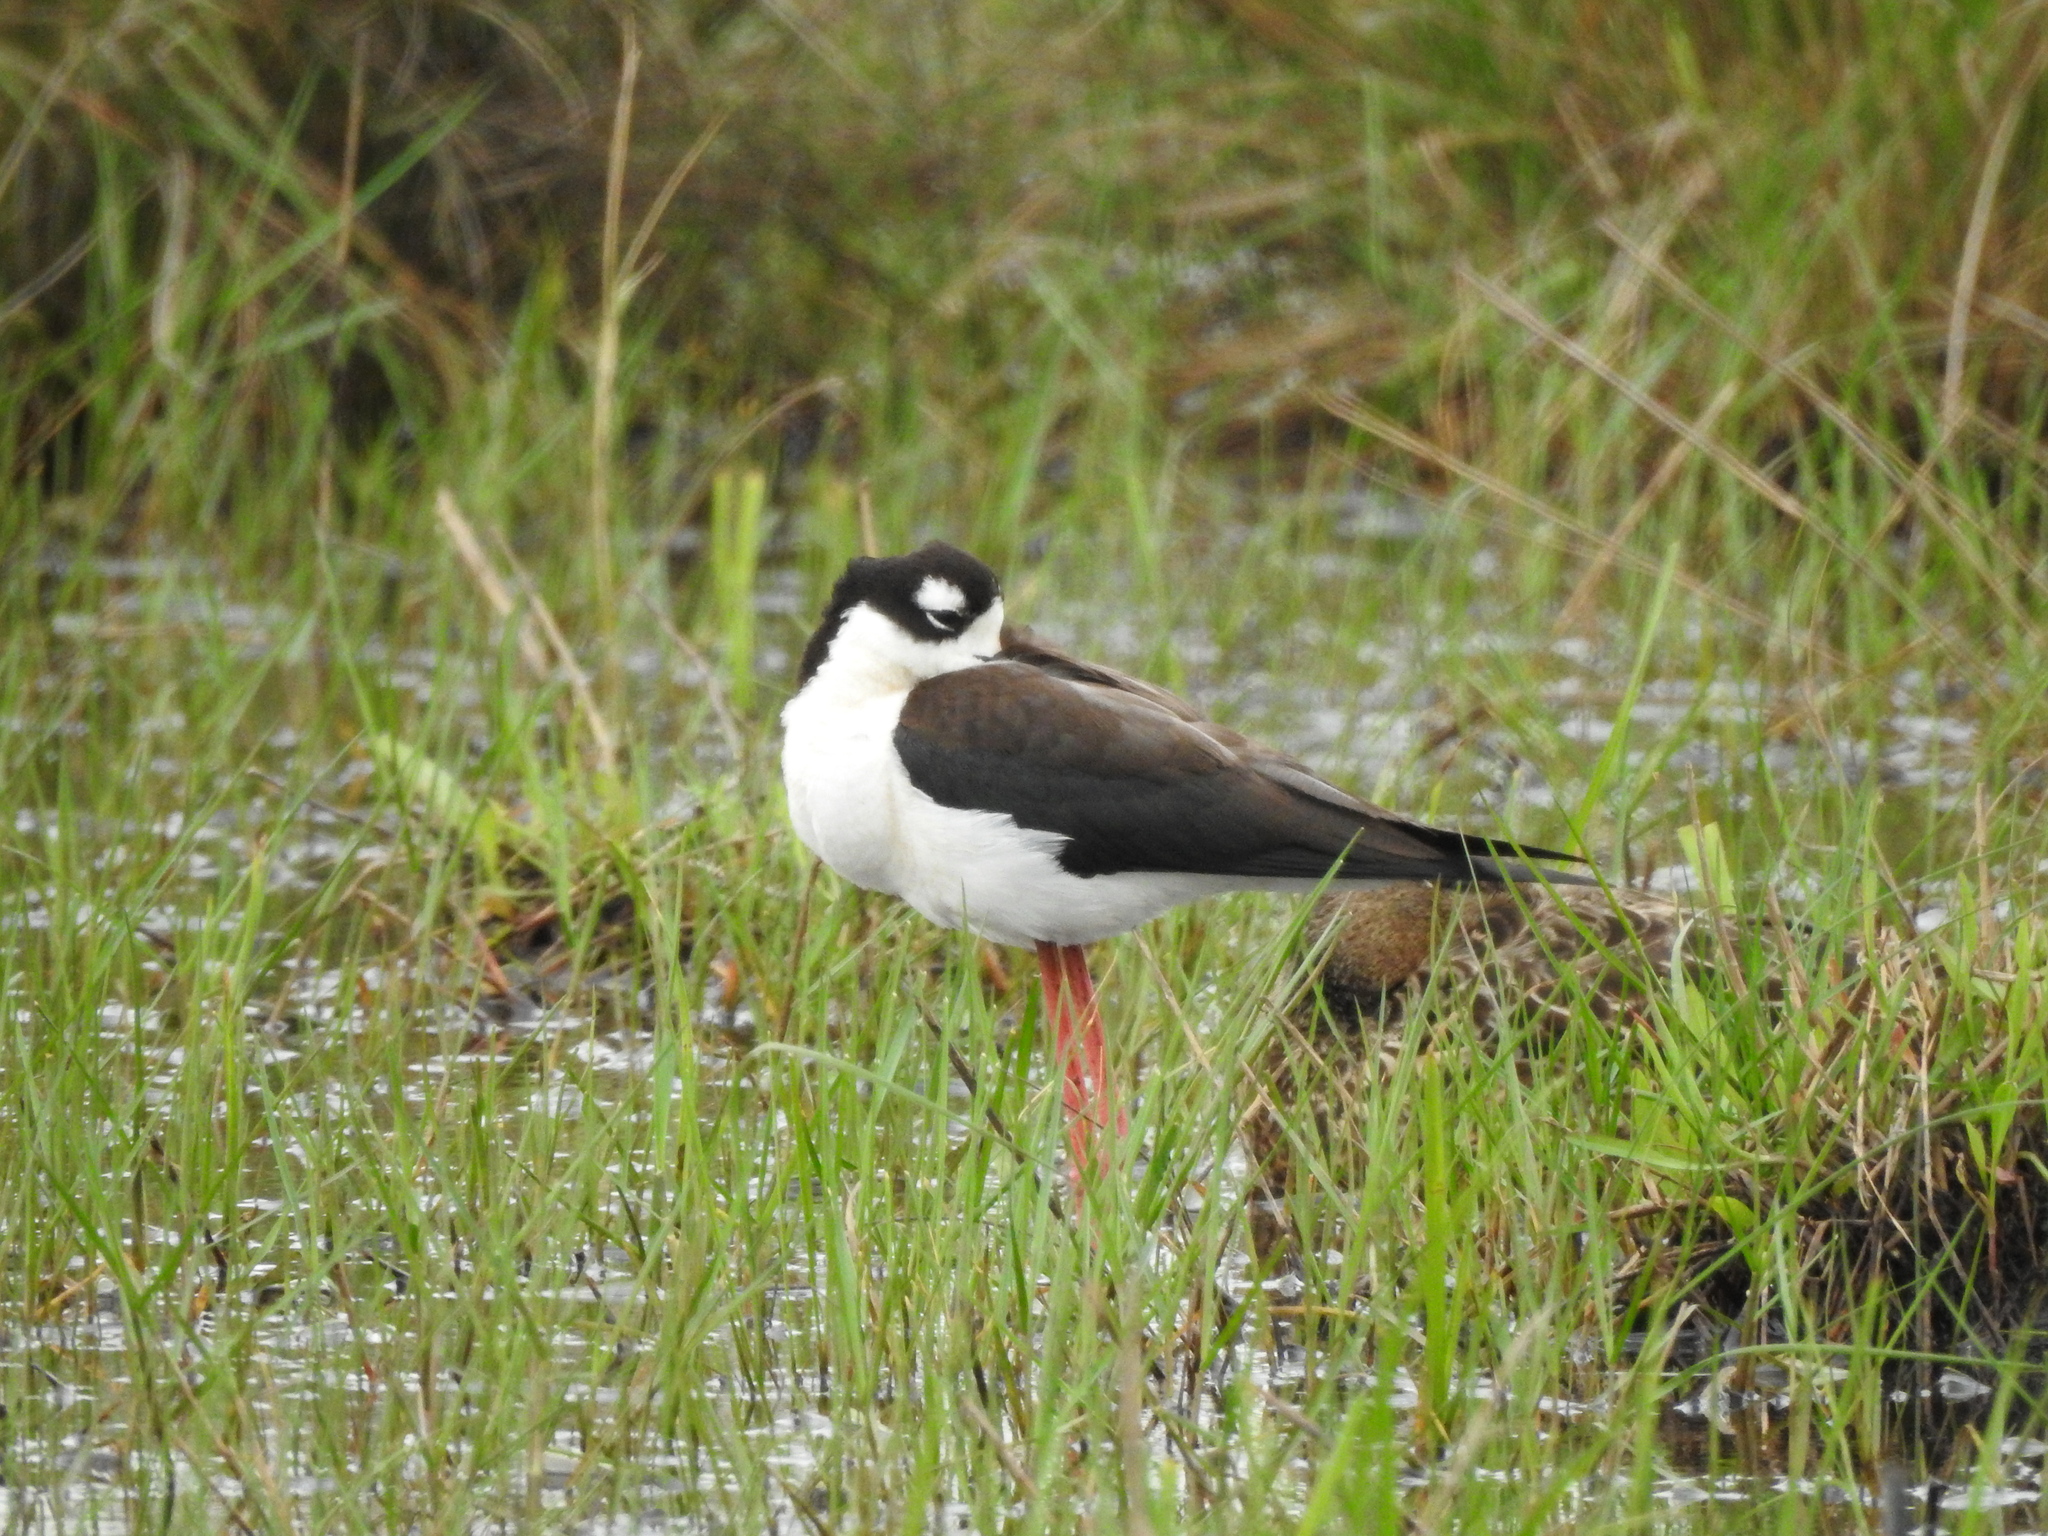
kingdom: Animalia
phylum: Chordata
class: Aves
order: Charadriiformes
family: Recurvirostridae
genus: Himantopus
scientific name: Himantopus mexicanus
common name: Black-necked stilt
